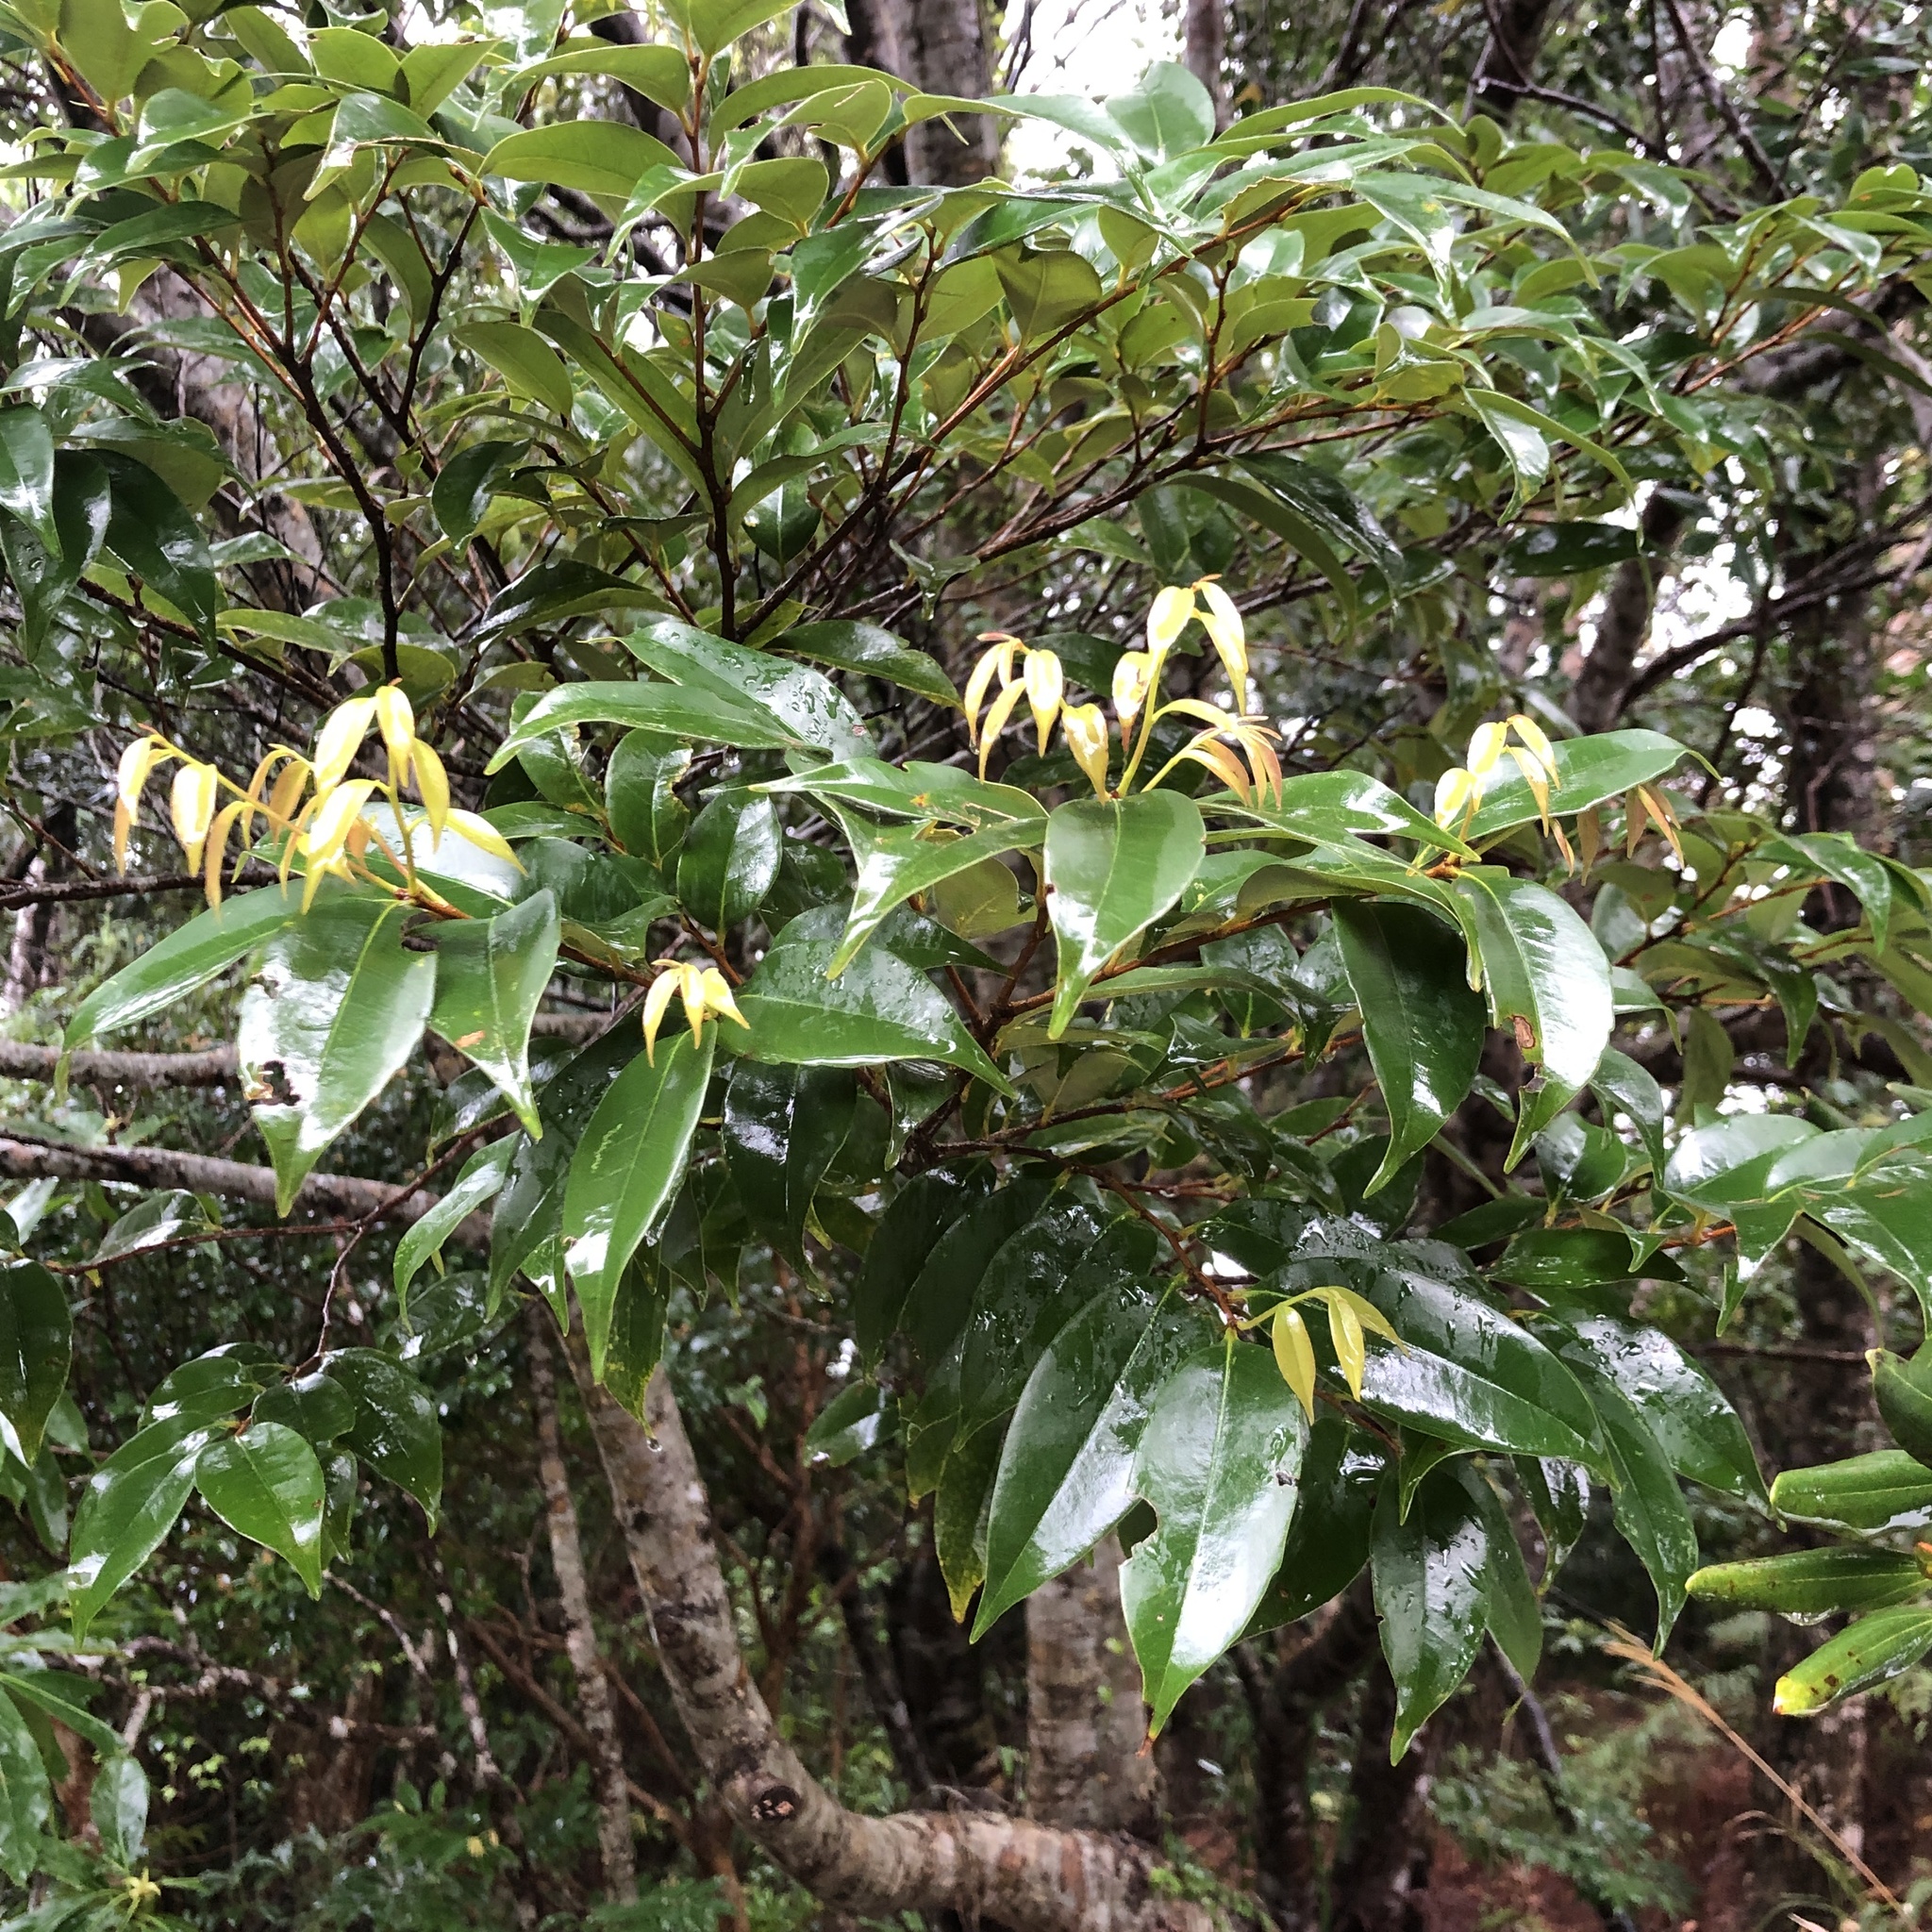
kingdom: Plantae
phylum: Tracheophyta
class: Magnoliopsida
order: Fagales
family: Fagaceae
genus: Castanopsis
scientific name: Castanopsis sieboldii
